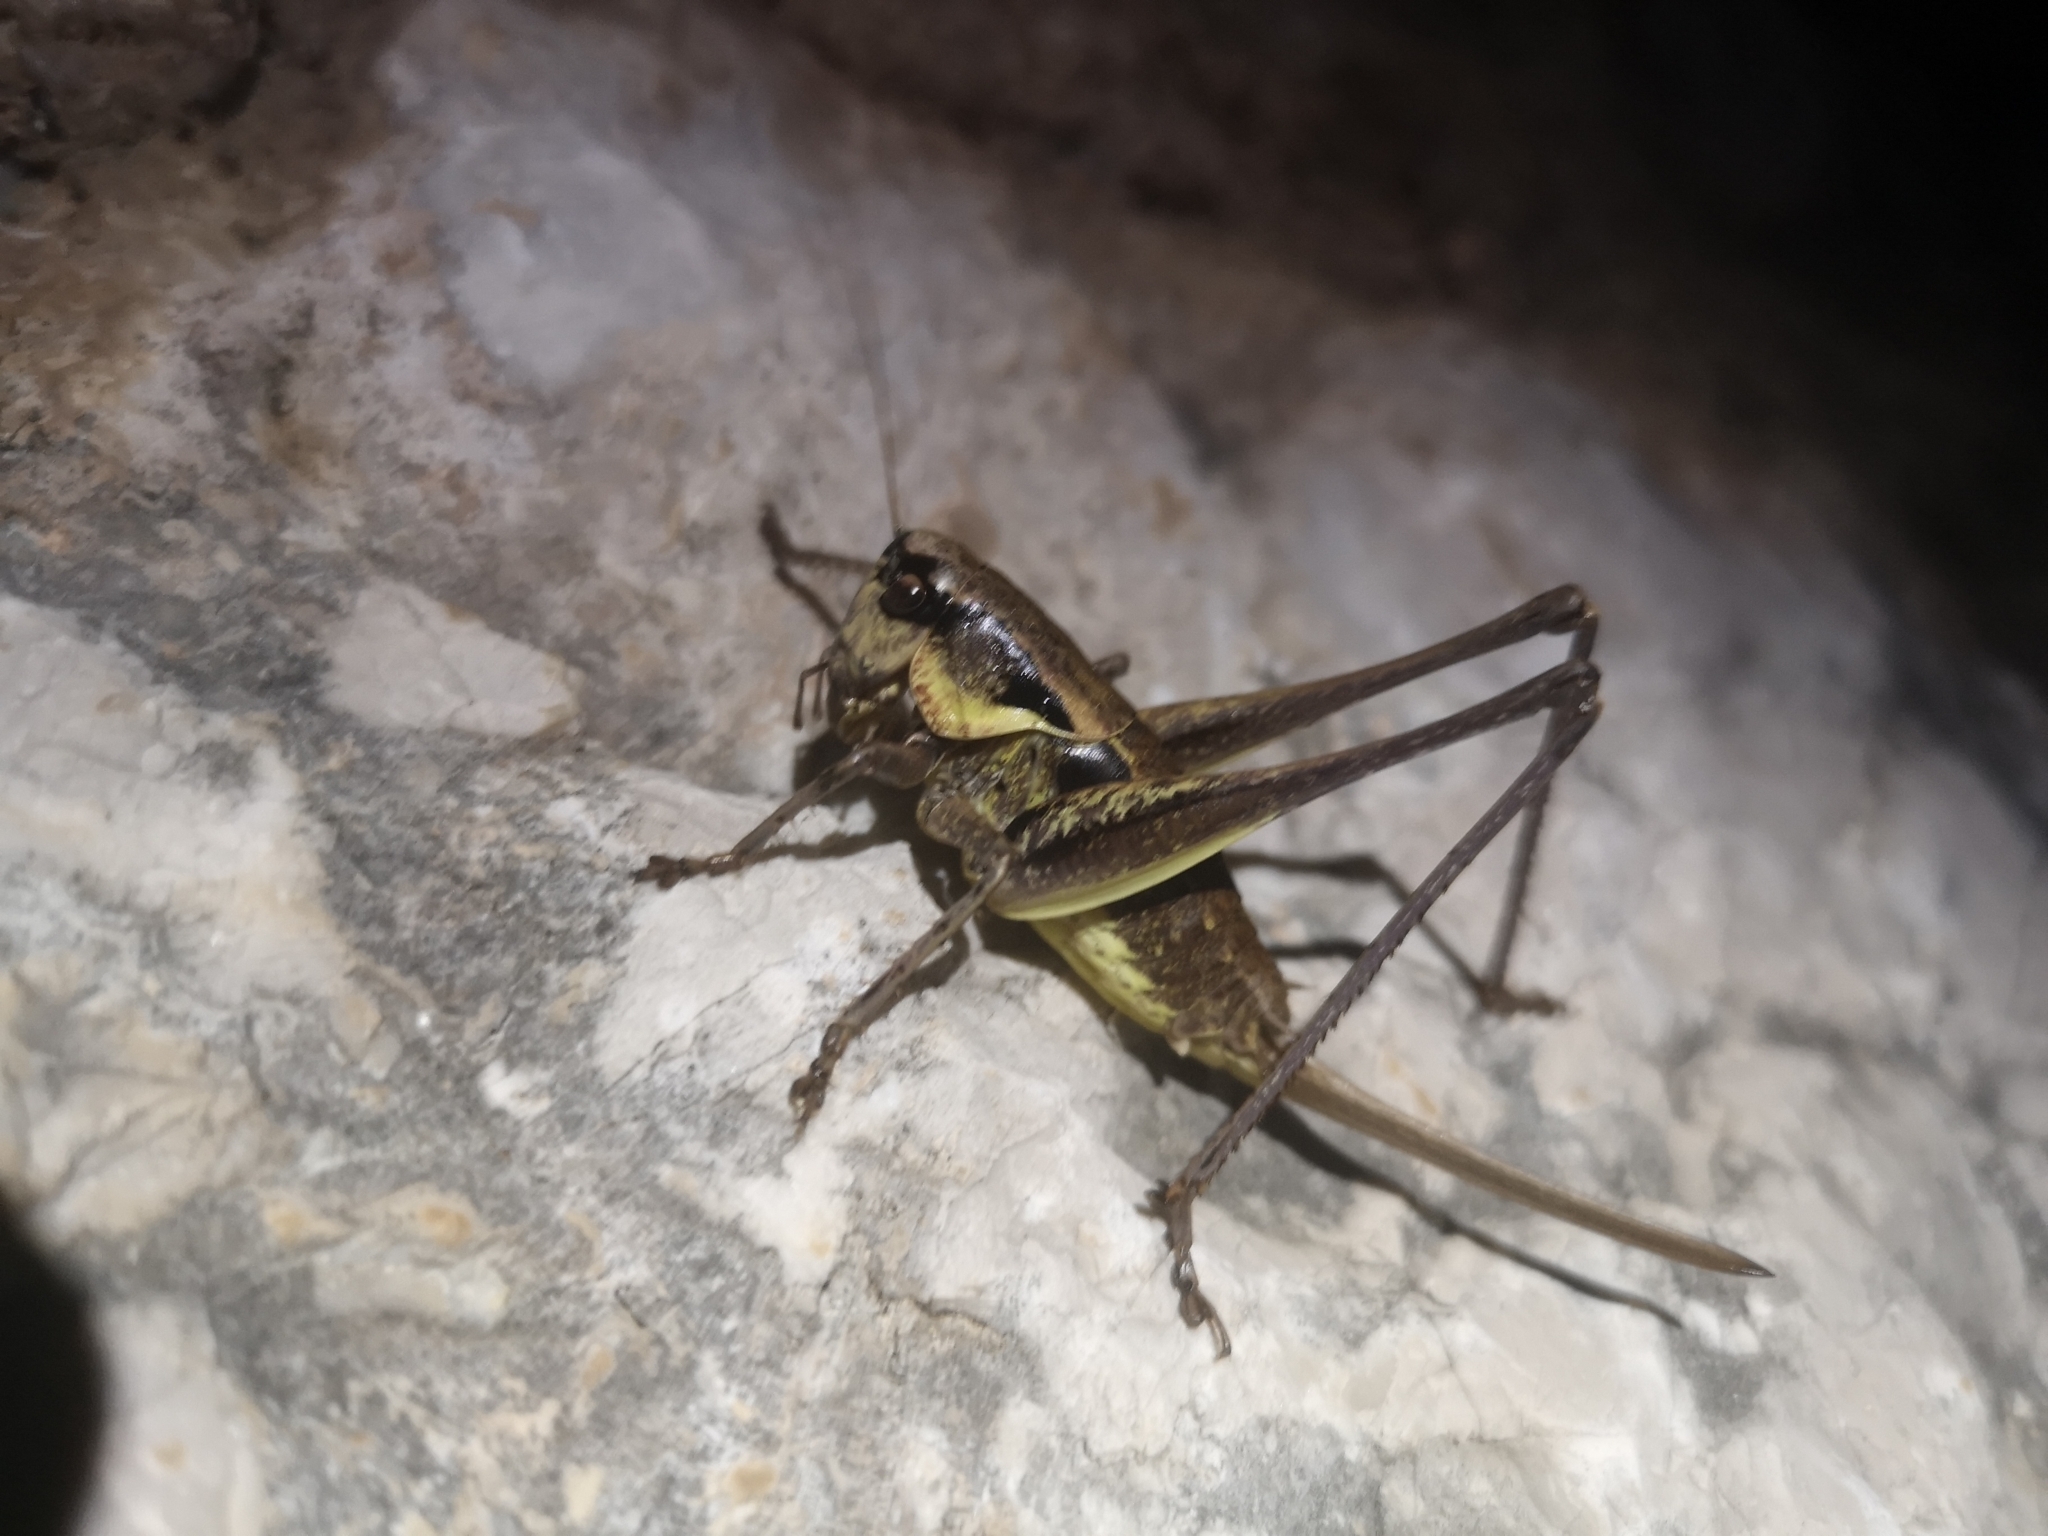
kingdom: Animalia
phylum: Arthropoda
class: Insecta
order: Orthoptera
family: Tettigoniidae
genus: Pholidoptera
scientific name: Pholidoptera dalmatica
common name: Dalmatian dark bush-cricket
